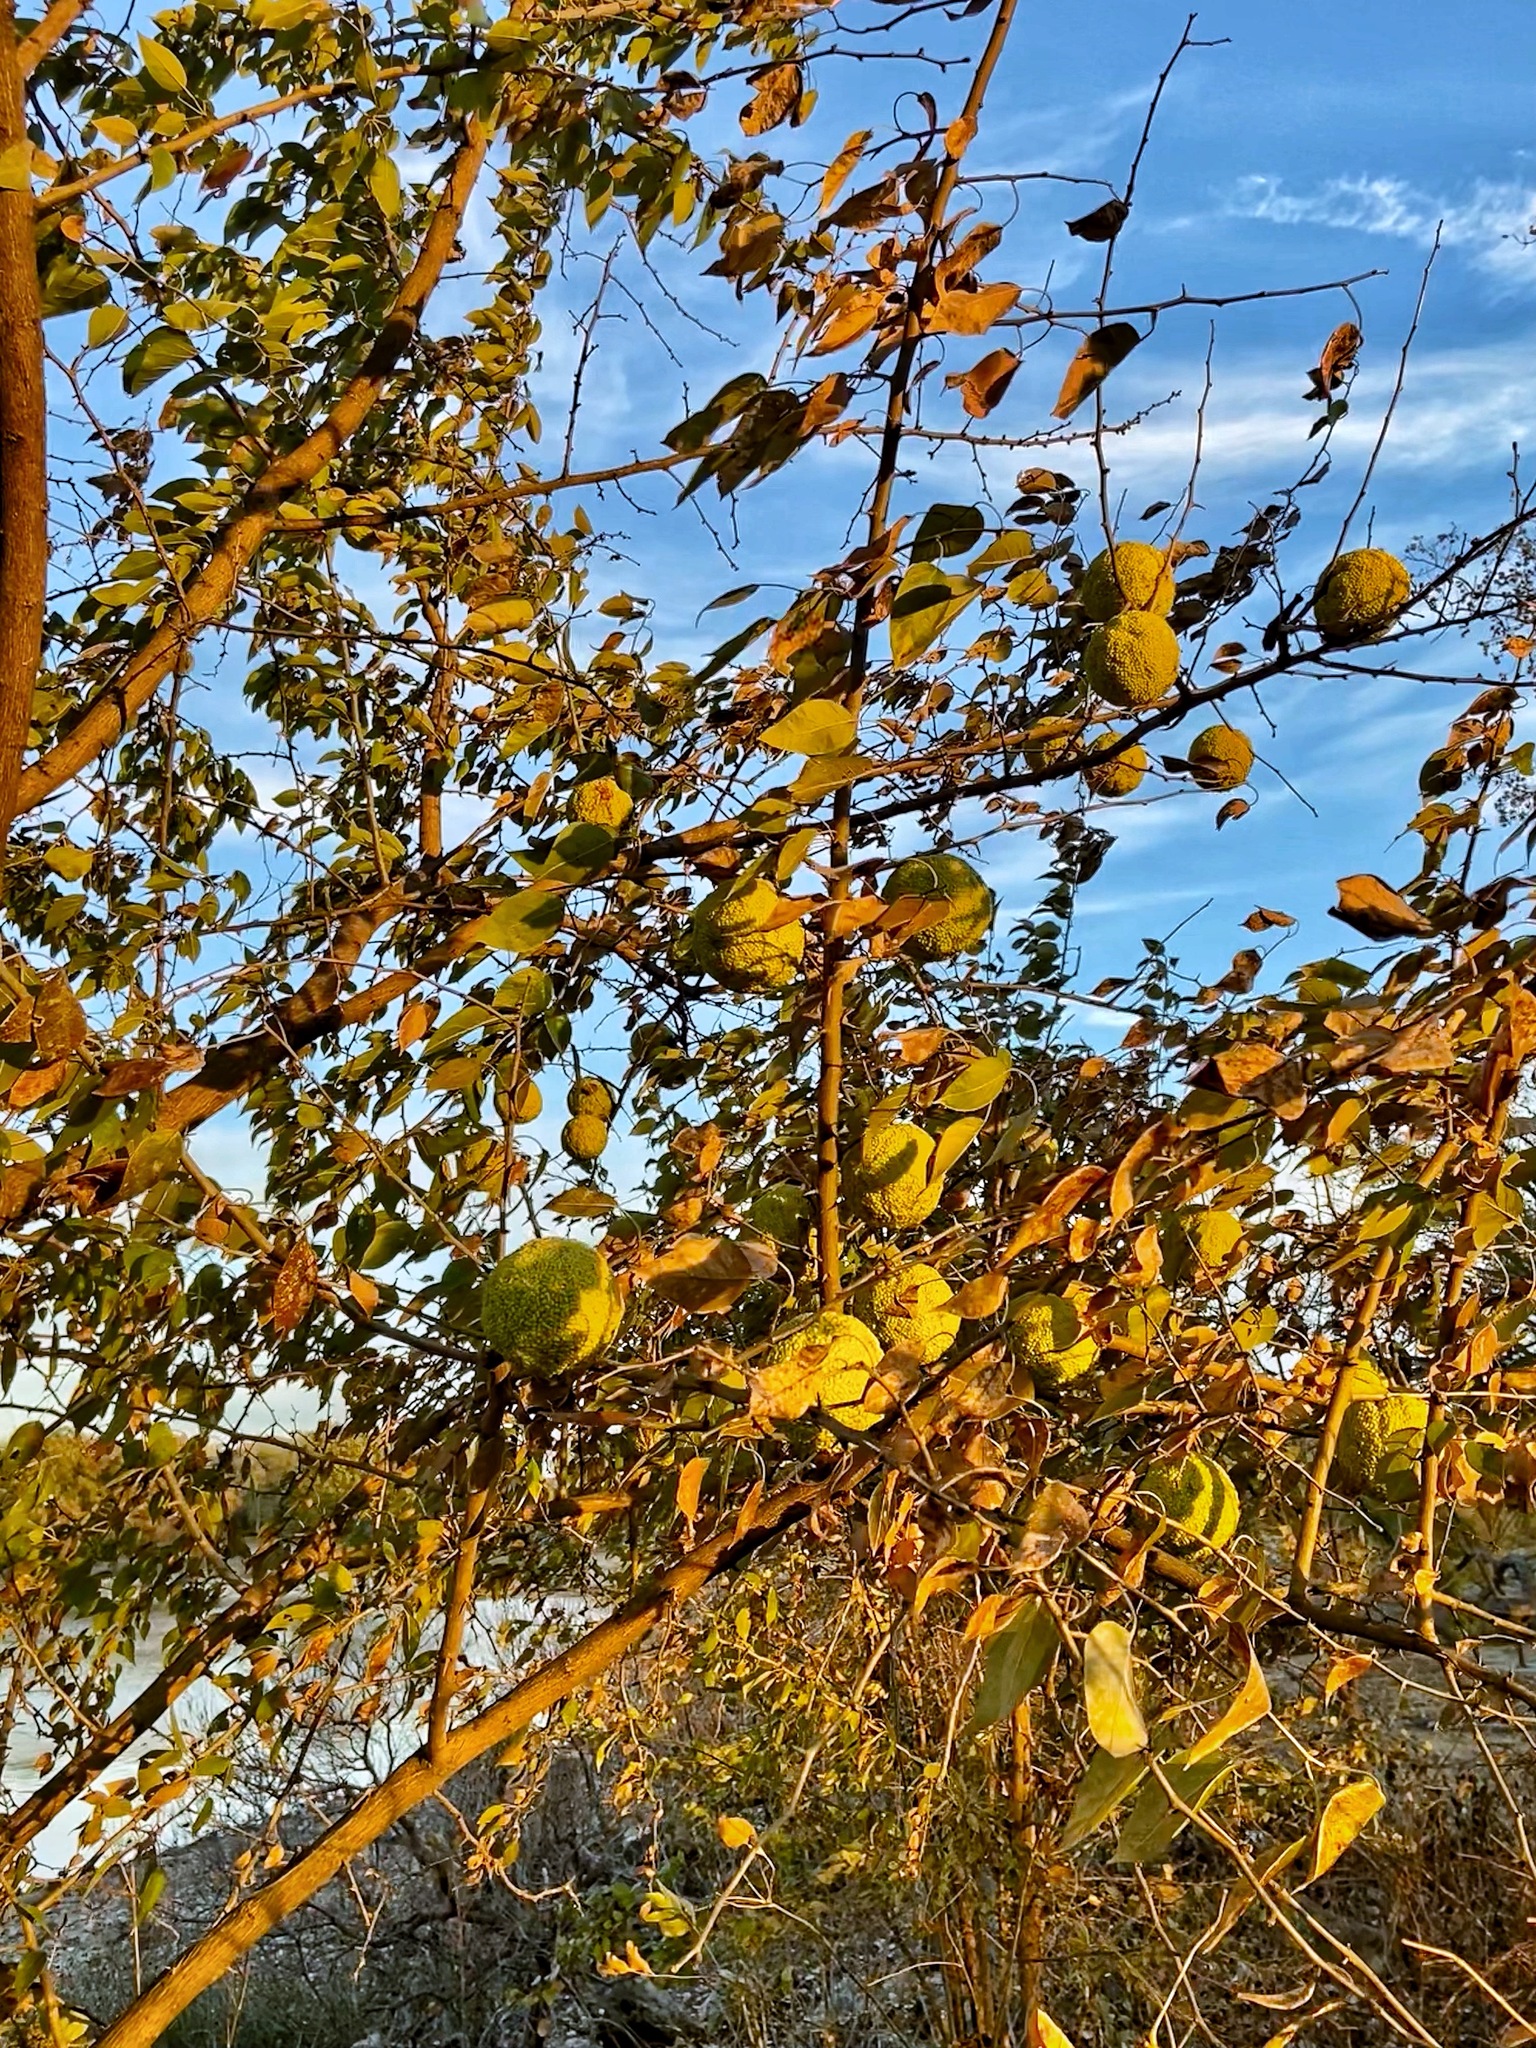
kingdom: Plantae
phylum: Tracheophyta
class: Magnoliopsida
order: Rosales
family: Moraceae
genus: Maclura
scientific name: Maclura pomifera
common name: Osage-orange
